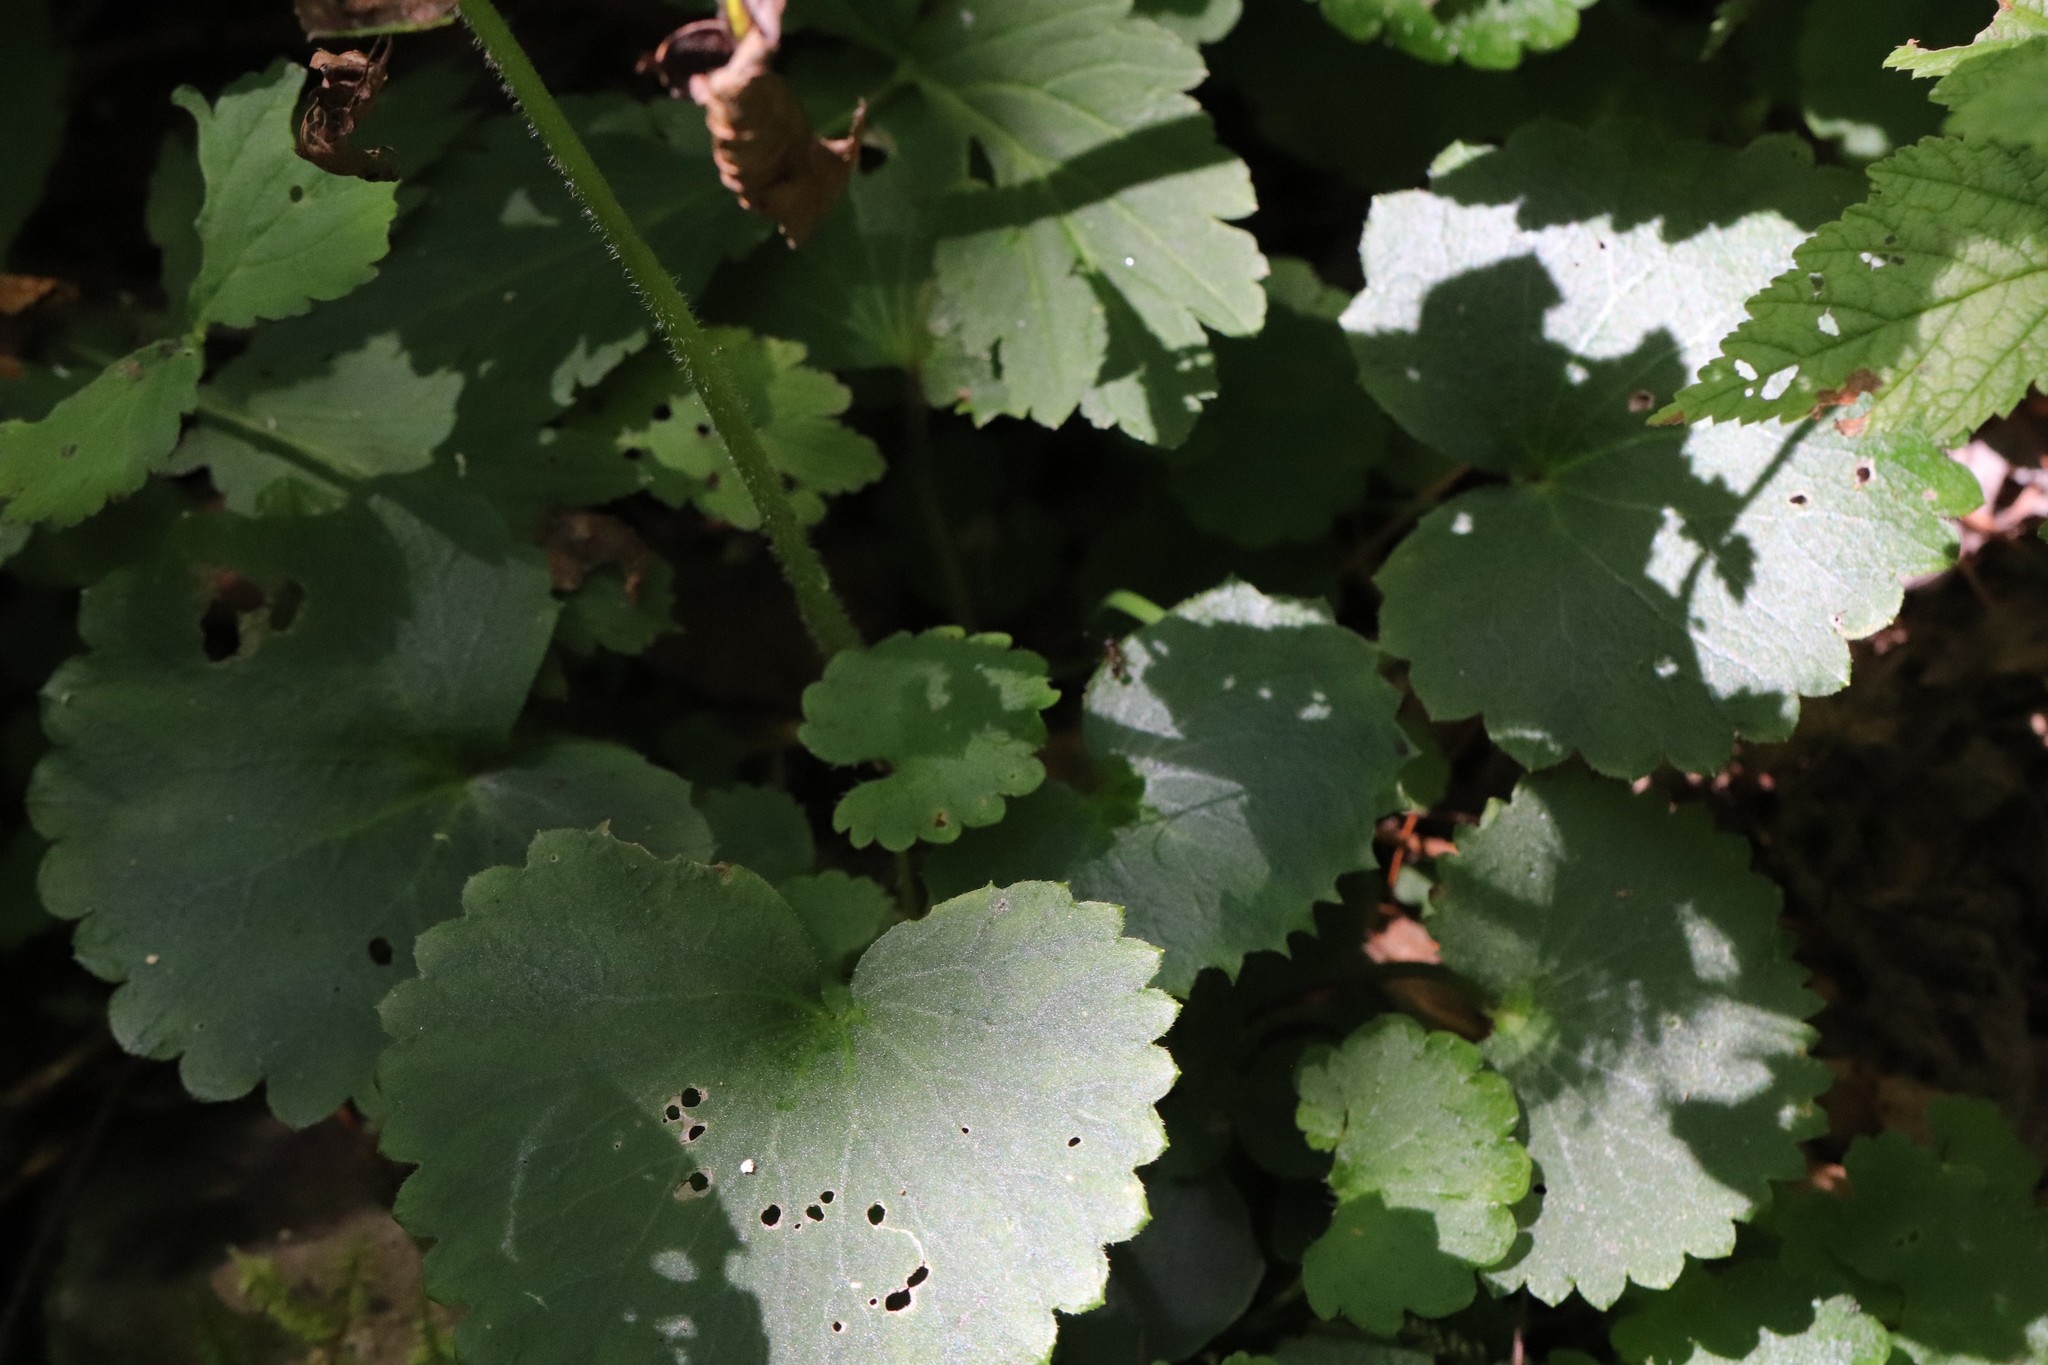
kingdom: Plantae
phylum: Tracheophyta
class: Magnoliopsida
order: Saxifragales
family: Saxifragaceae
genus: Micranthes
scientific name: Micranthes manchuriensis
